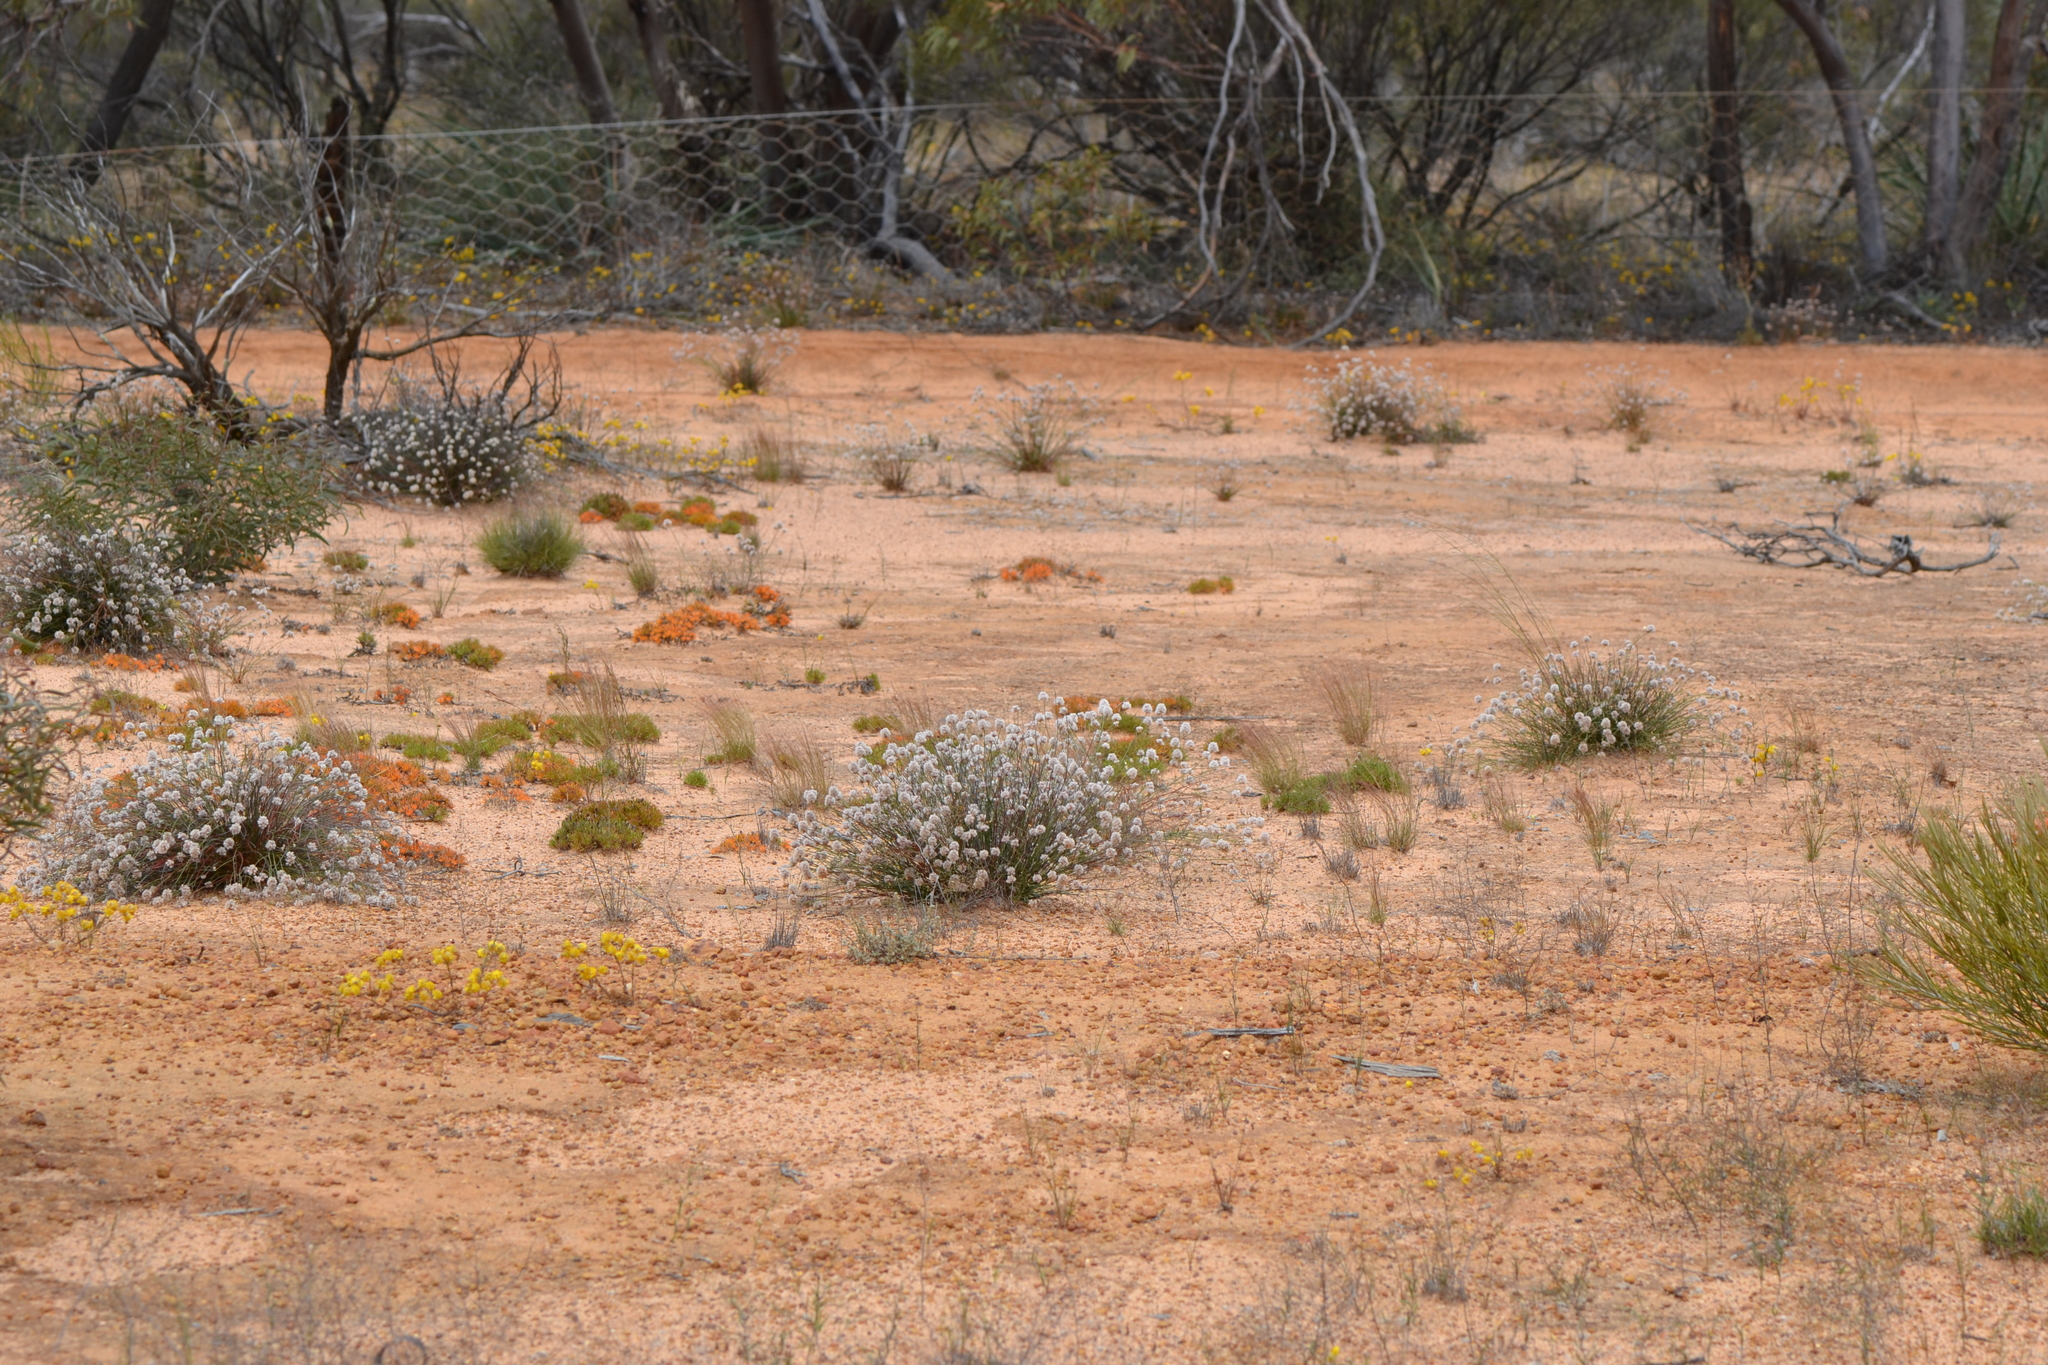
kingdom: Plantae
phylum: Tracheophyta
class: Magnoliopsida
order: Caryophyllales
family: Amaranthaceae
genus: Ptilotus
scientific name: Ptilotus schwartzii
